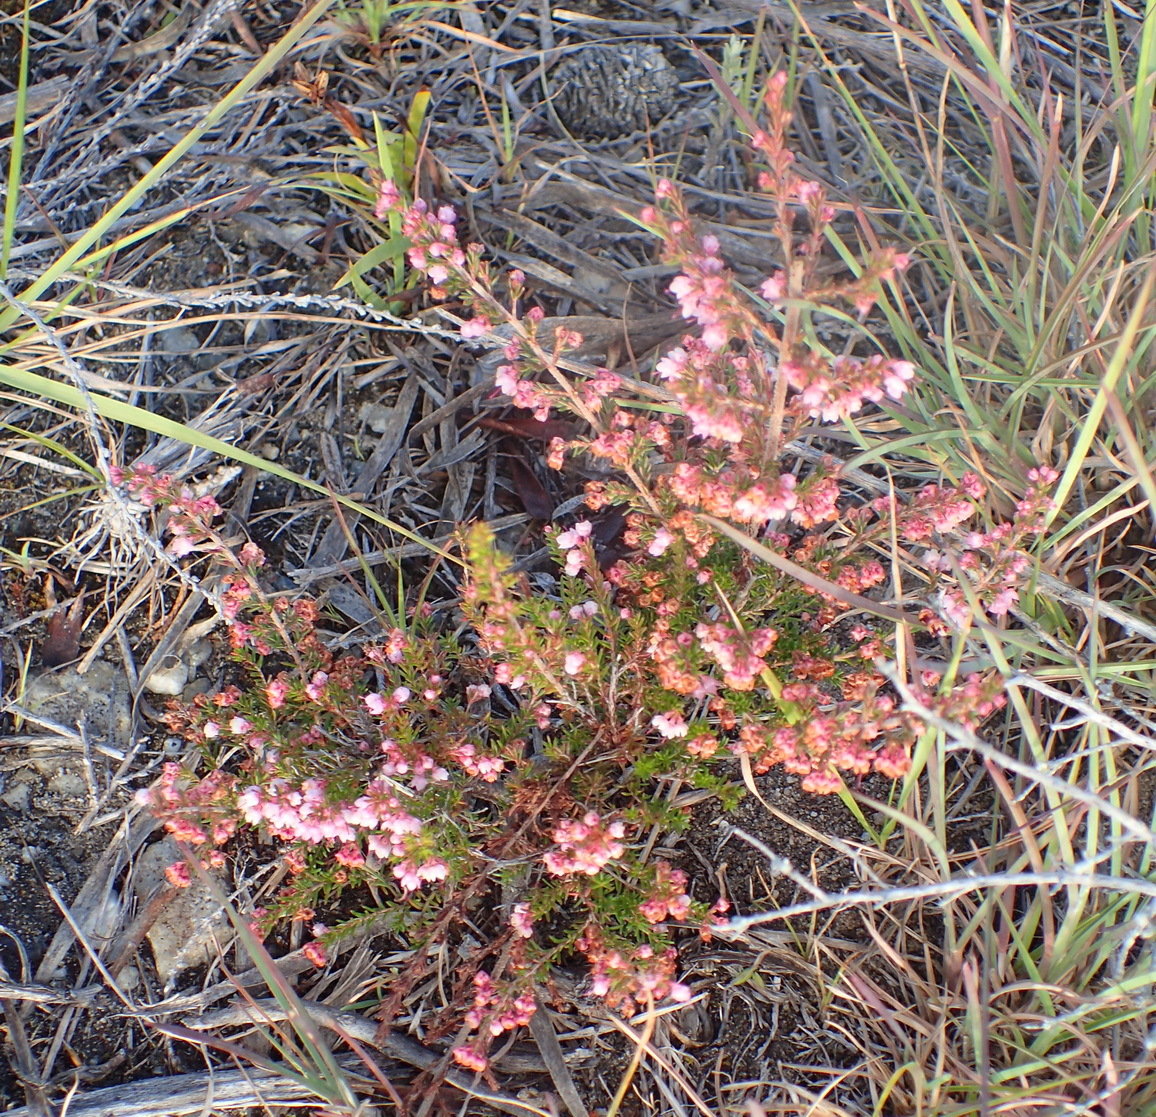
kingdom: Plantae
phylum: Tracheophyta
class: Magnoliopsida
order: Ericales
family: Ericaceae
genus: Erica
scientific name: Erica canaliculata
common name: Hairy grey heather
